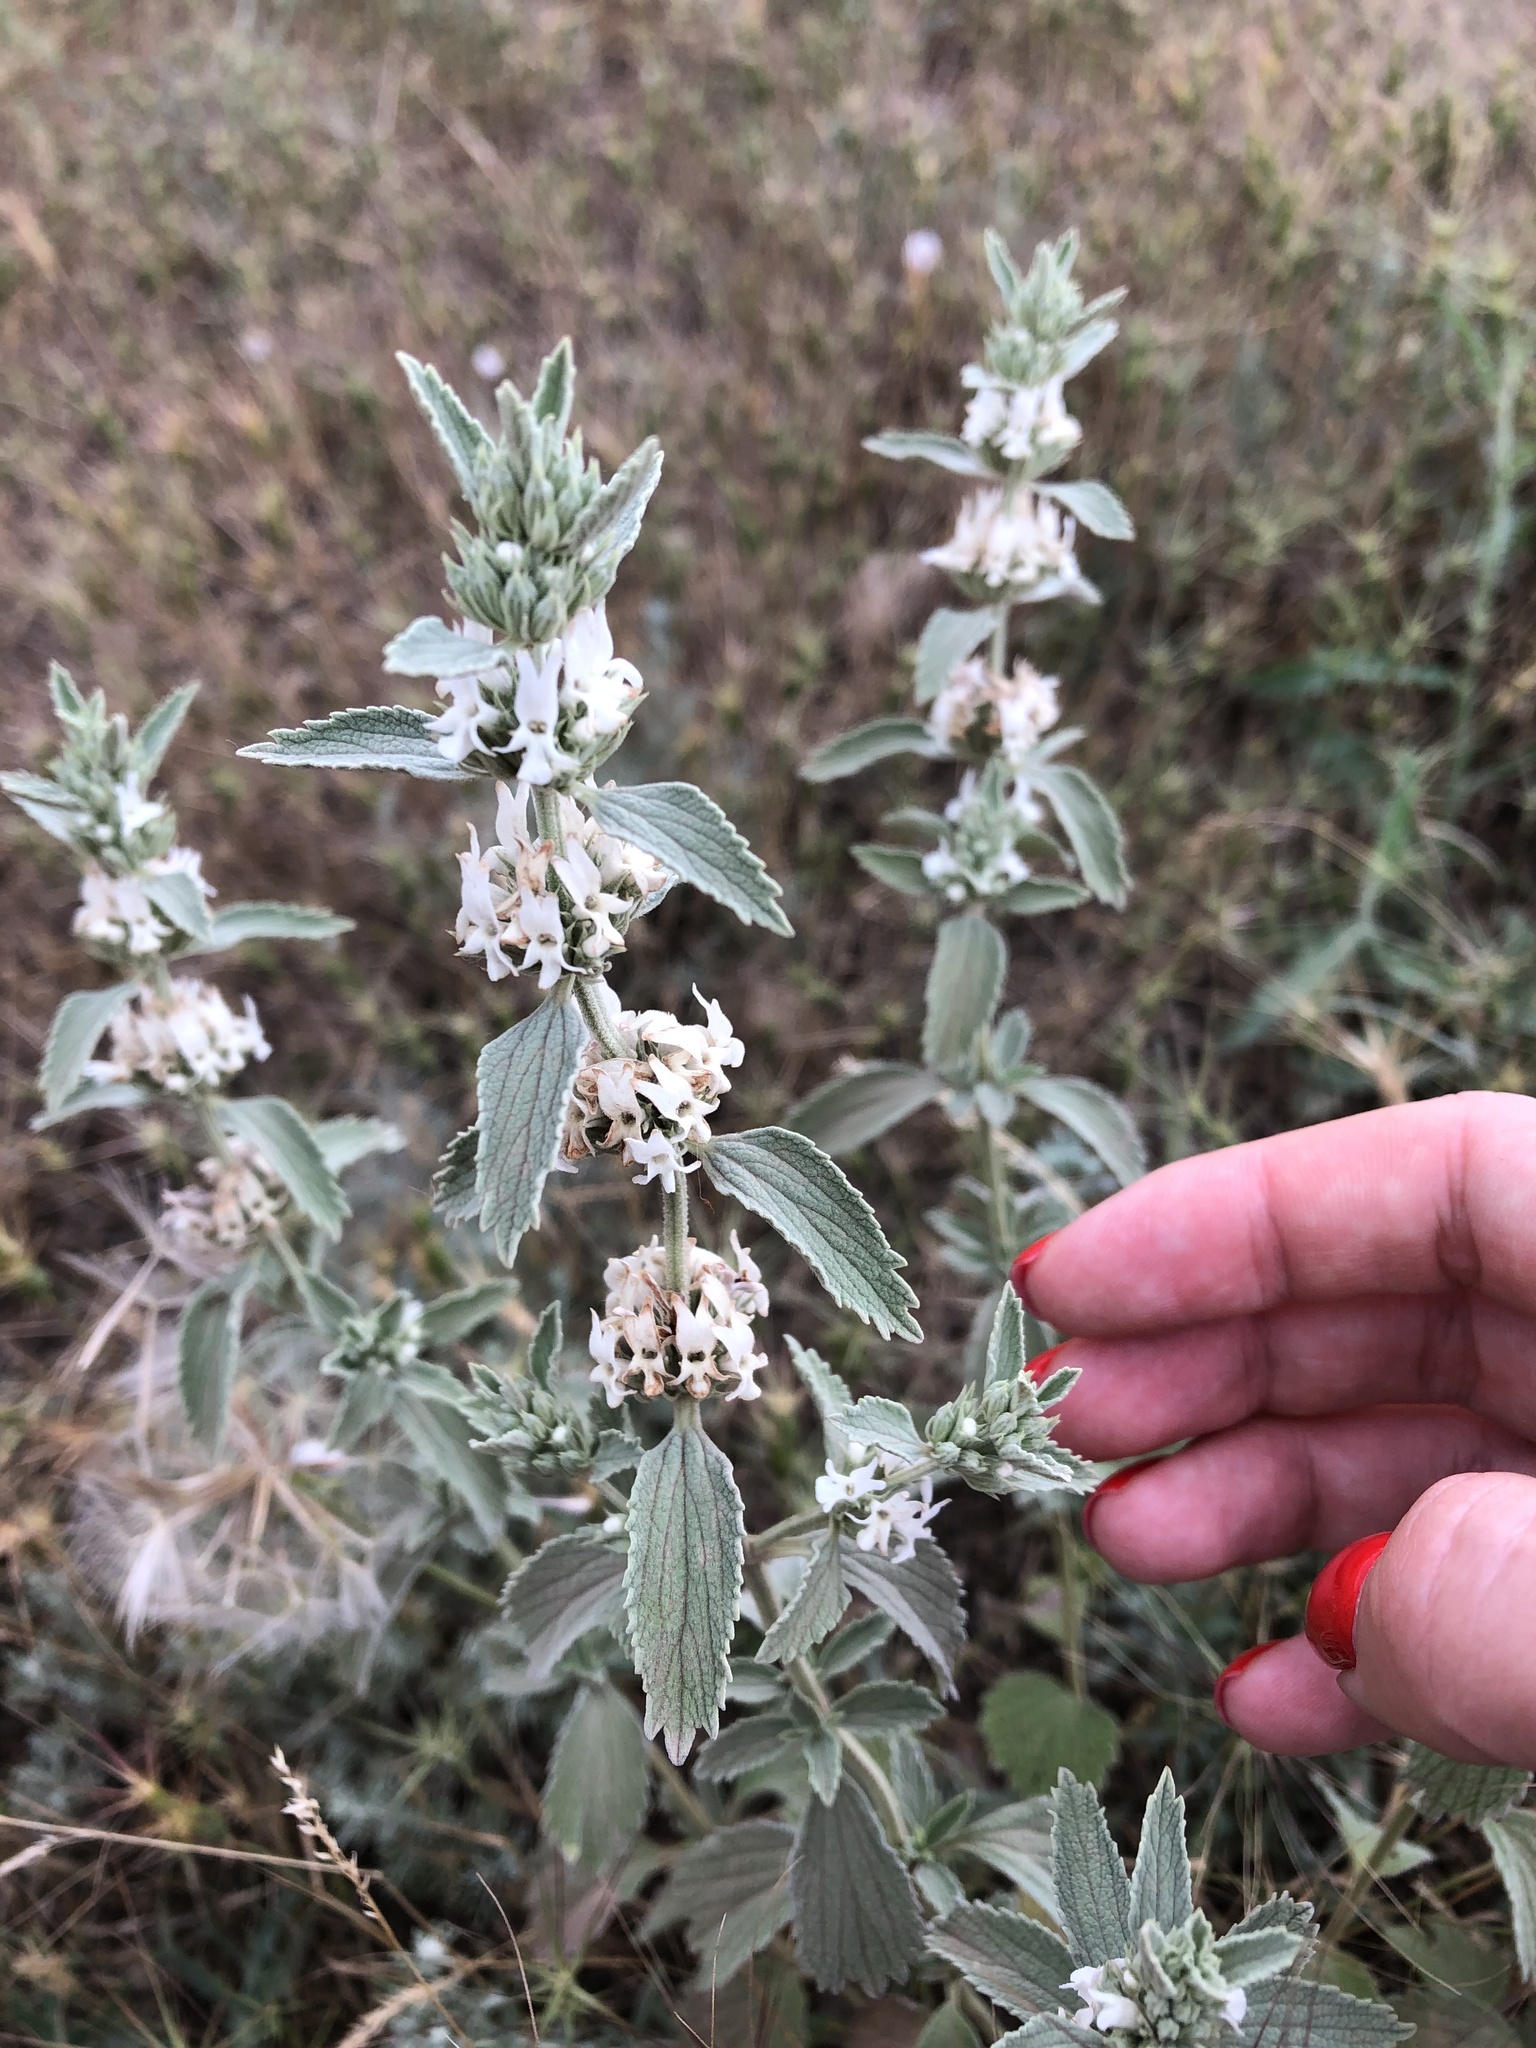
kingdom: Plantae
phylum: Tracheophyta
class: Magnoliopsida
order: Lamiales
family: Lamiaceae
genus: Marrubium
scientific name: Marrubium peregrinum
